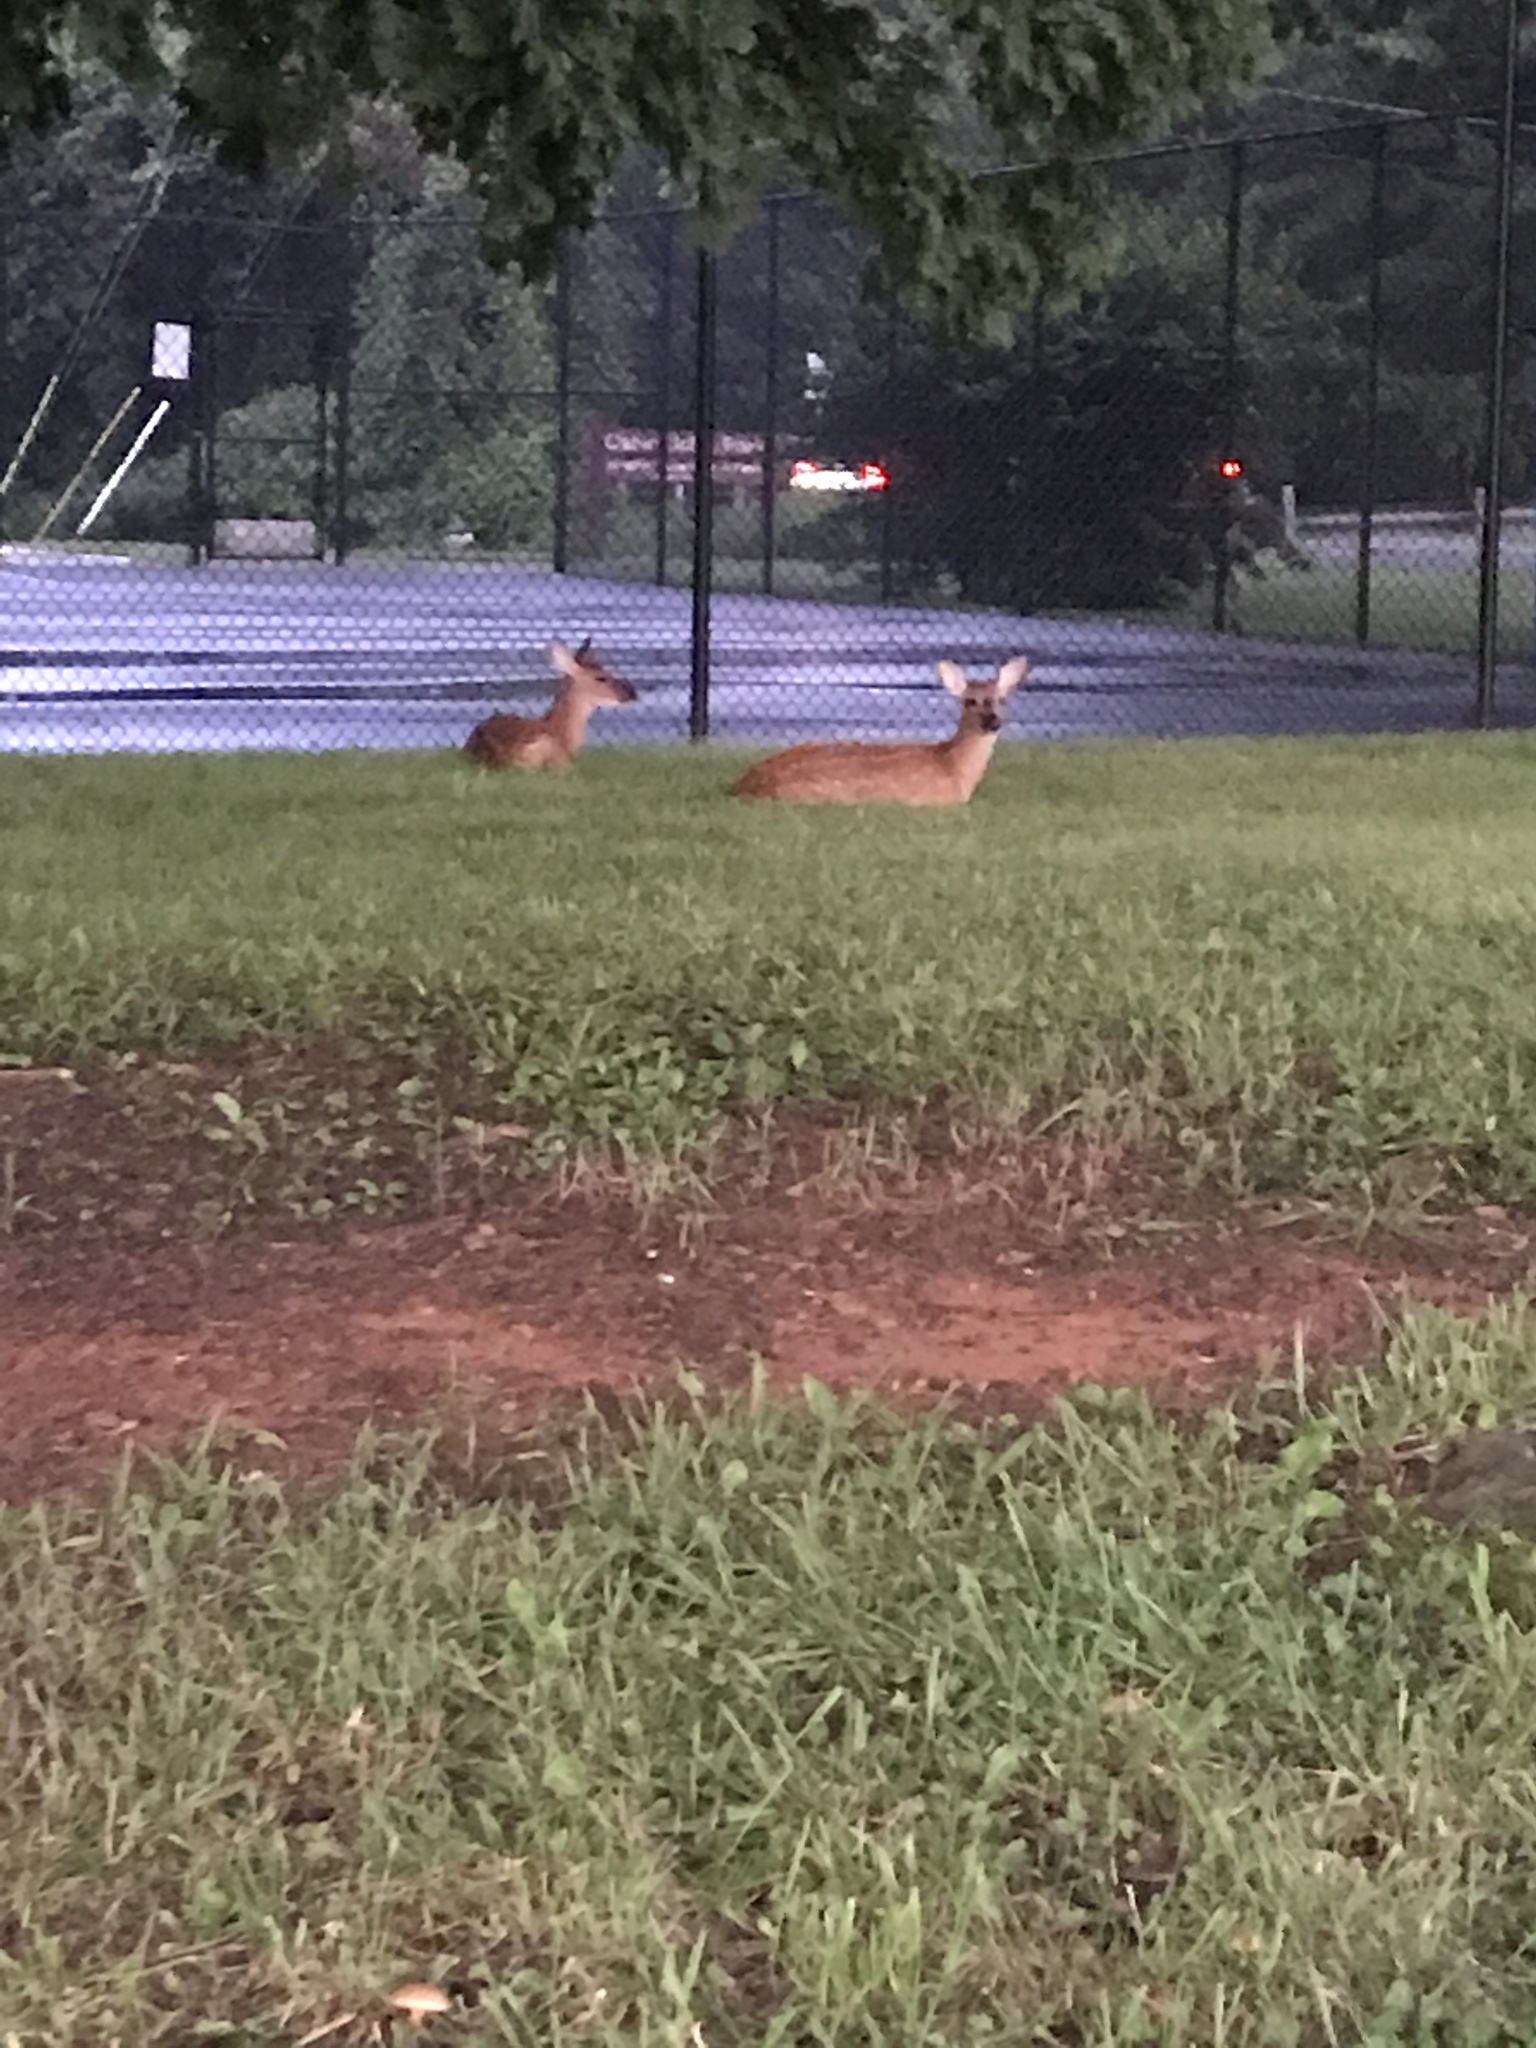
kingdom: Animalia
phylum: Chordata
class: Mammalia
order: Artiodactyla
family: Cervidae
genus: Odocoileus
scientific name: Odocoileus virginianus
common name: White-tailed deer
